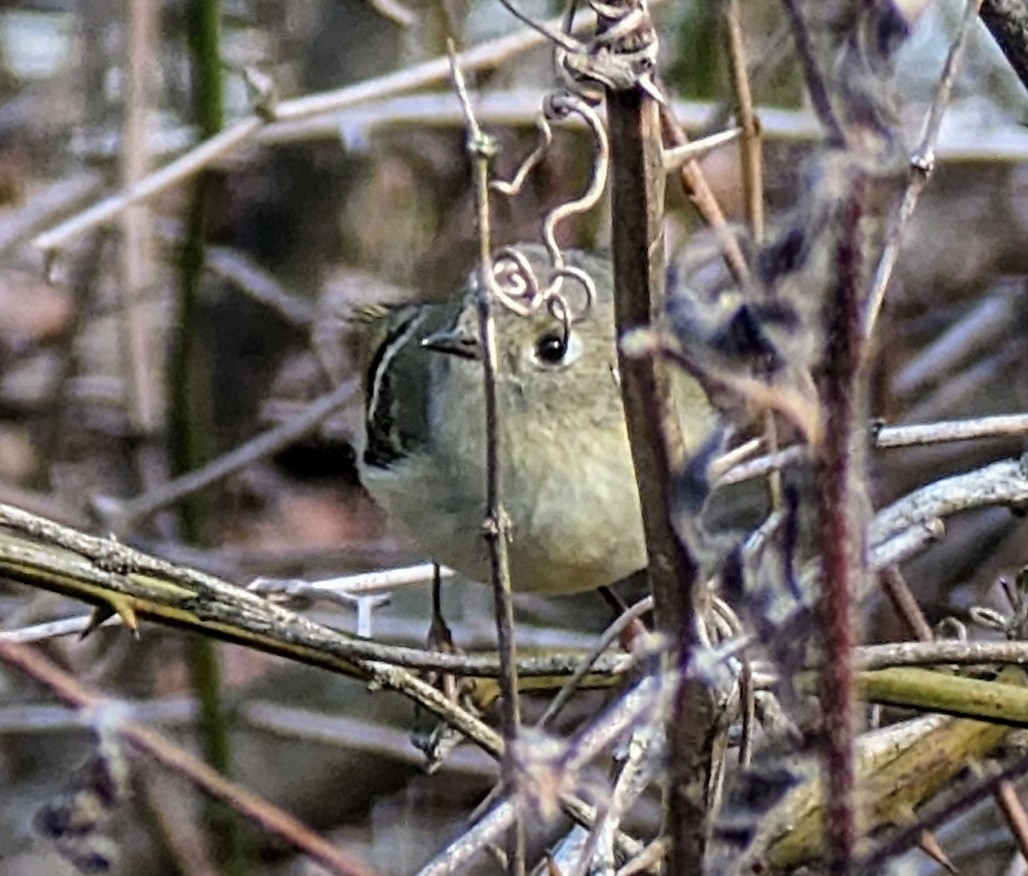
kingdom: Animalia
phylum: Chordata
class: Aves
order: Passeriformes
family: Regulidae
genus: Regulus
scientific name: Regulus calendula
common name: Ruby-crowned kinglet
